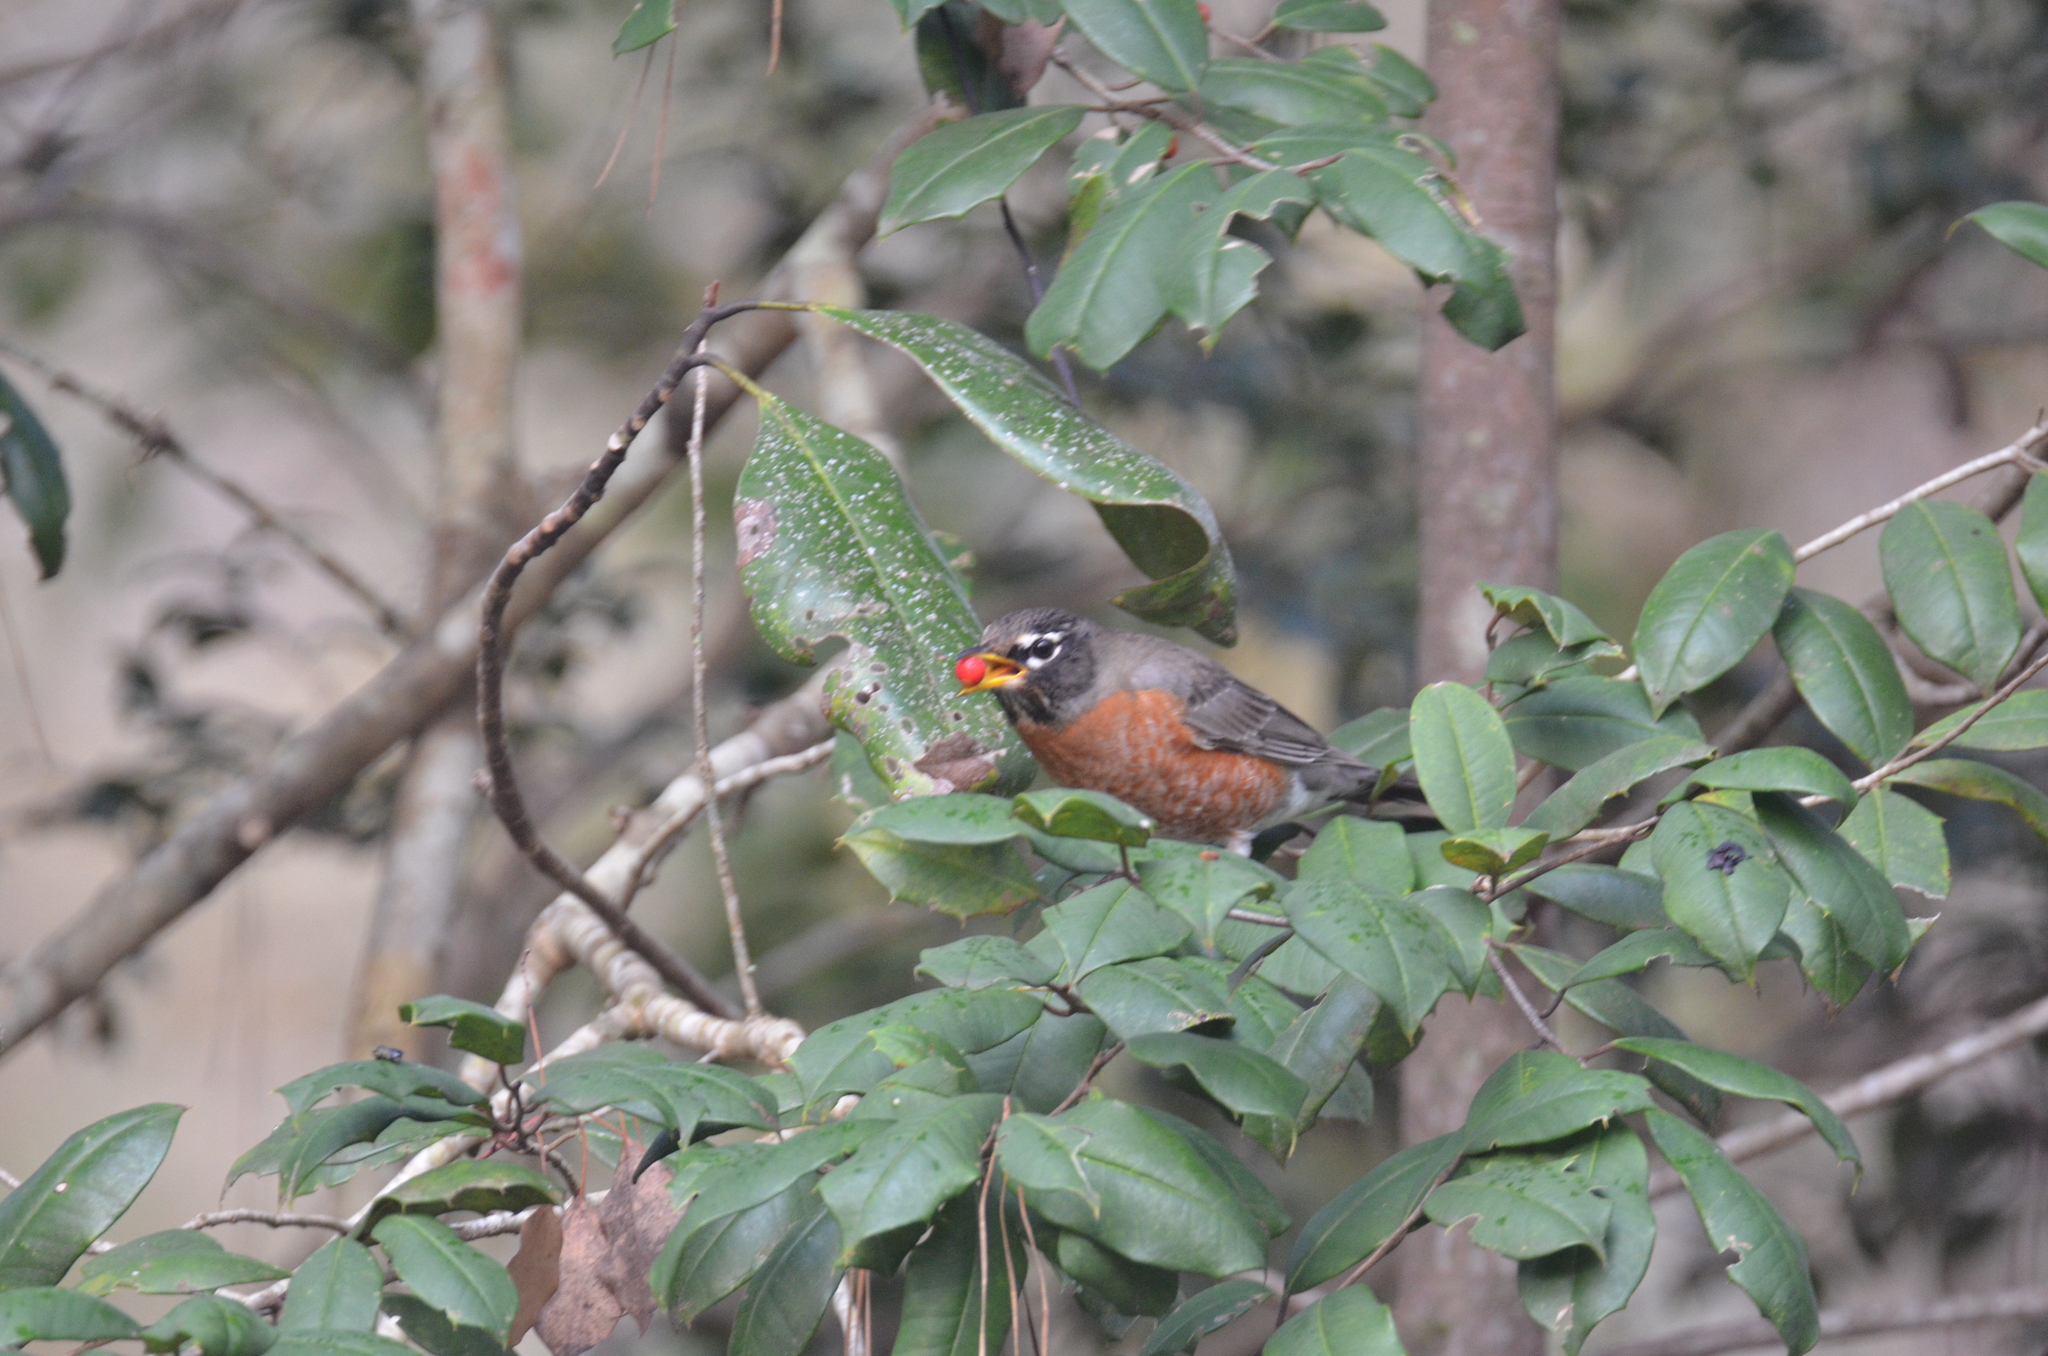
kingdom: Animalia
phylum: Chordata
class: Aves
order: Passeriformes
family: Turdidae
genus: Turdus
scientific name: Turdus migratorius
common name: American robin
